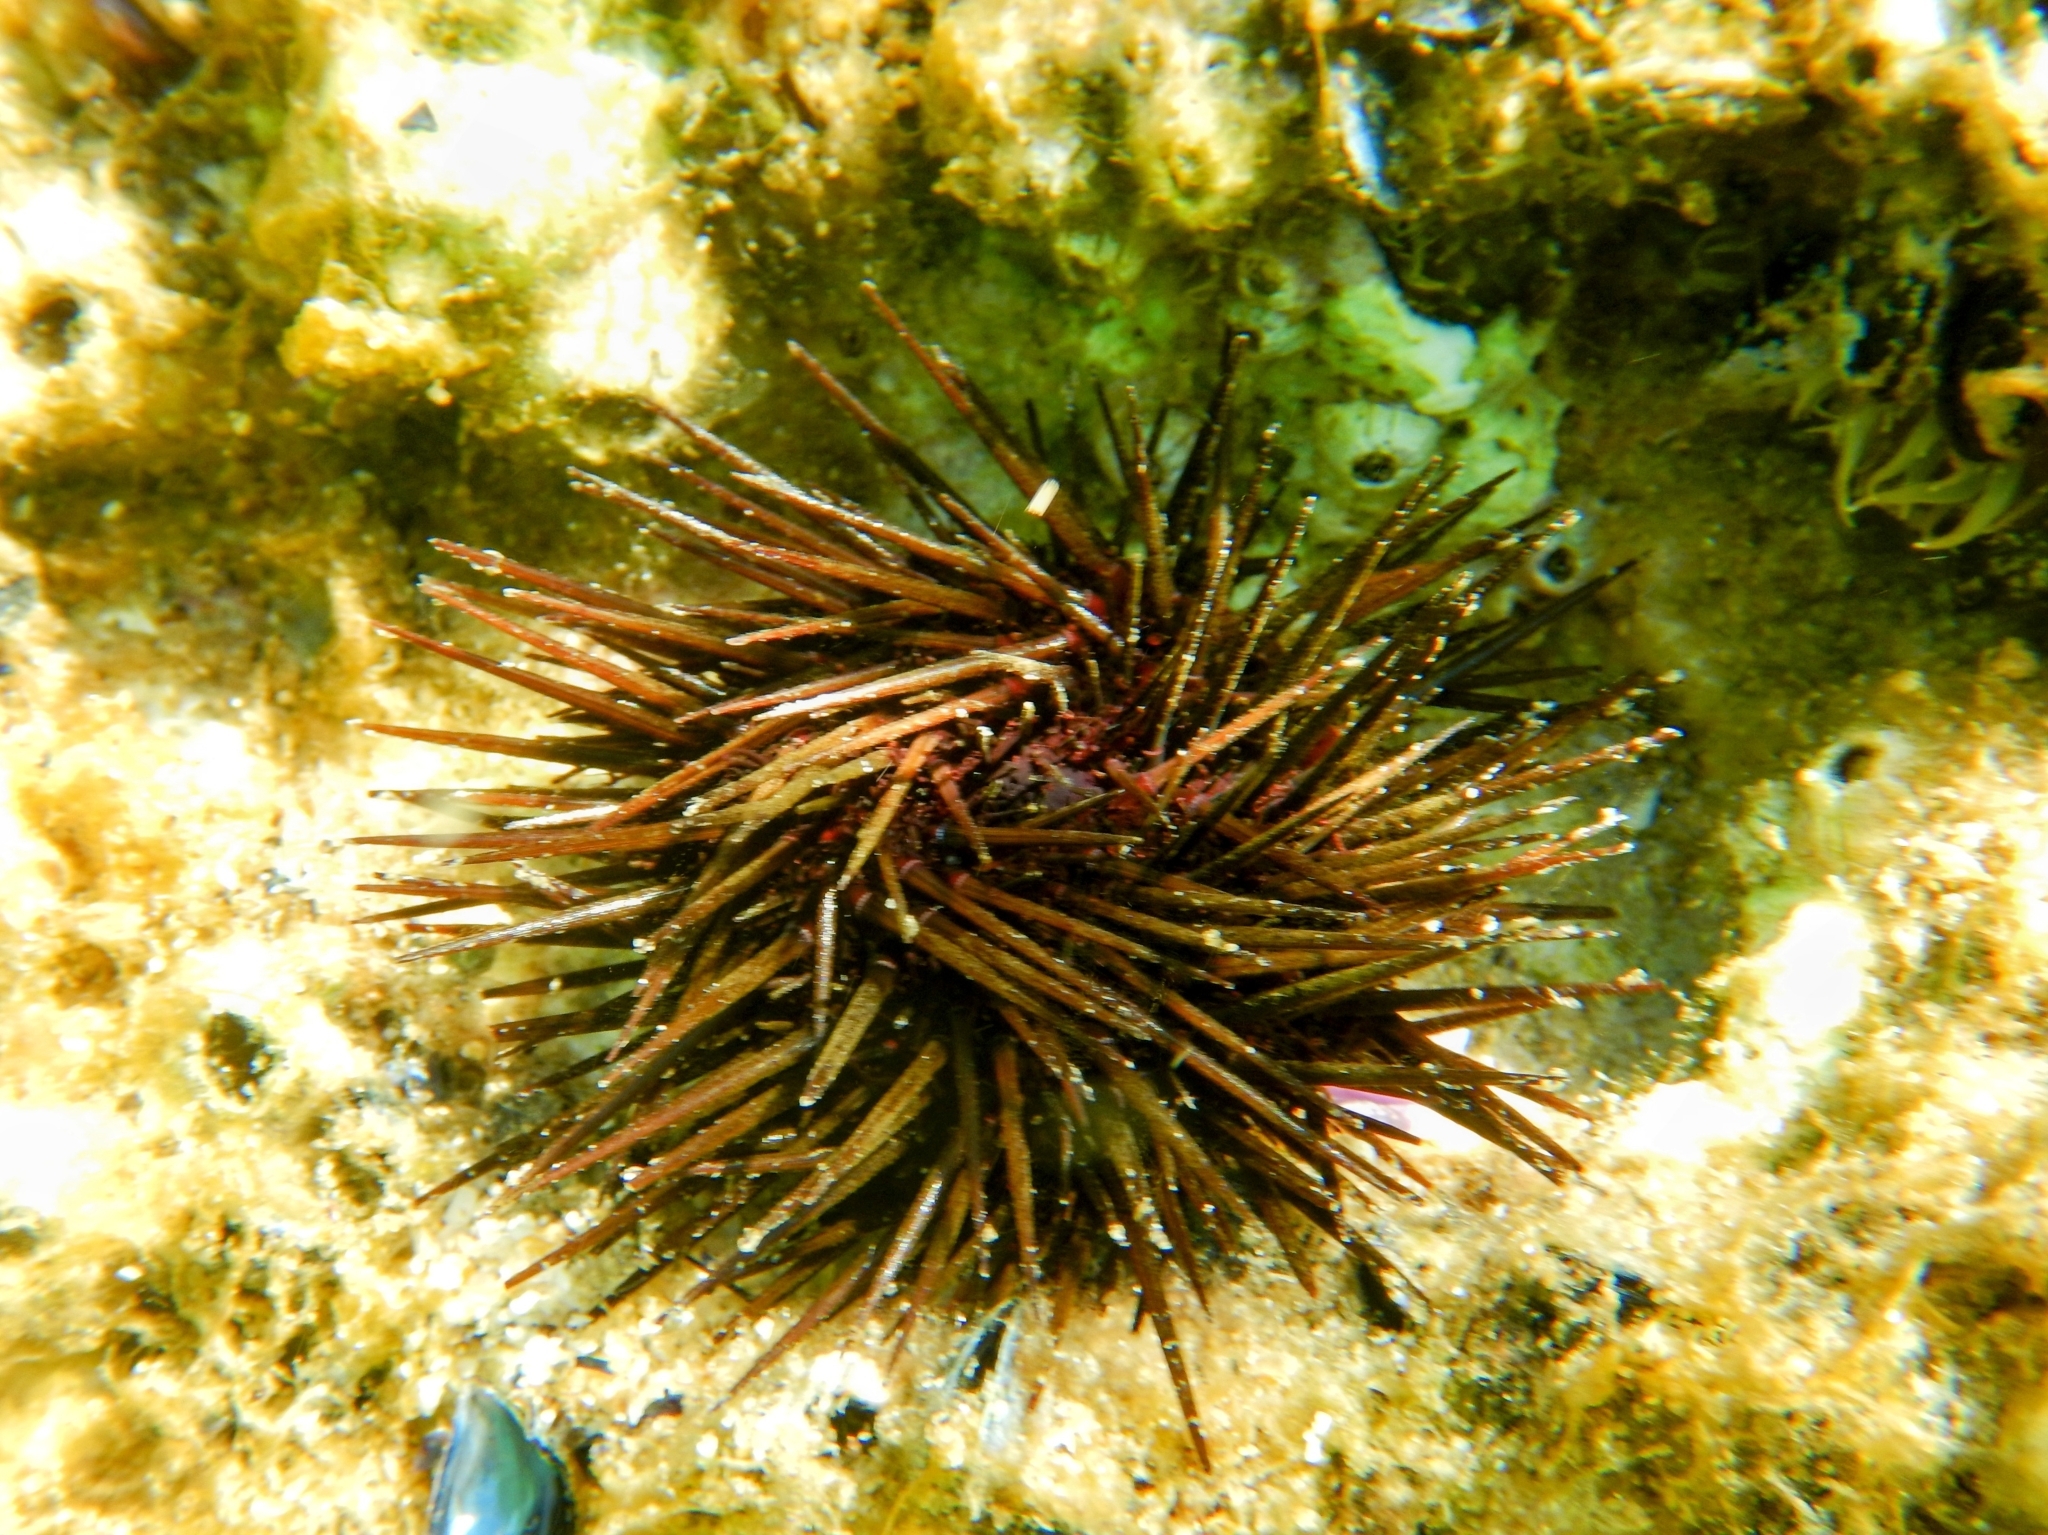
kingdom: Animalia
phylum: Echinodermata
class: Echinoidea
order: Camarodonta
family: Parechinidae
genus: Paracentrotus
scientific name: Paracentrotus lividus
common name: Purple sea urchin
